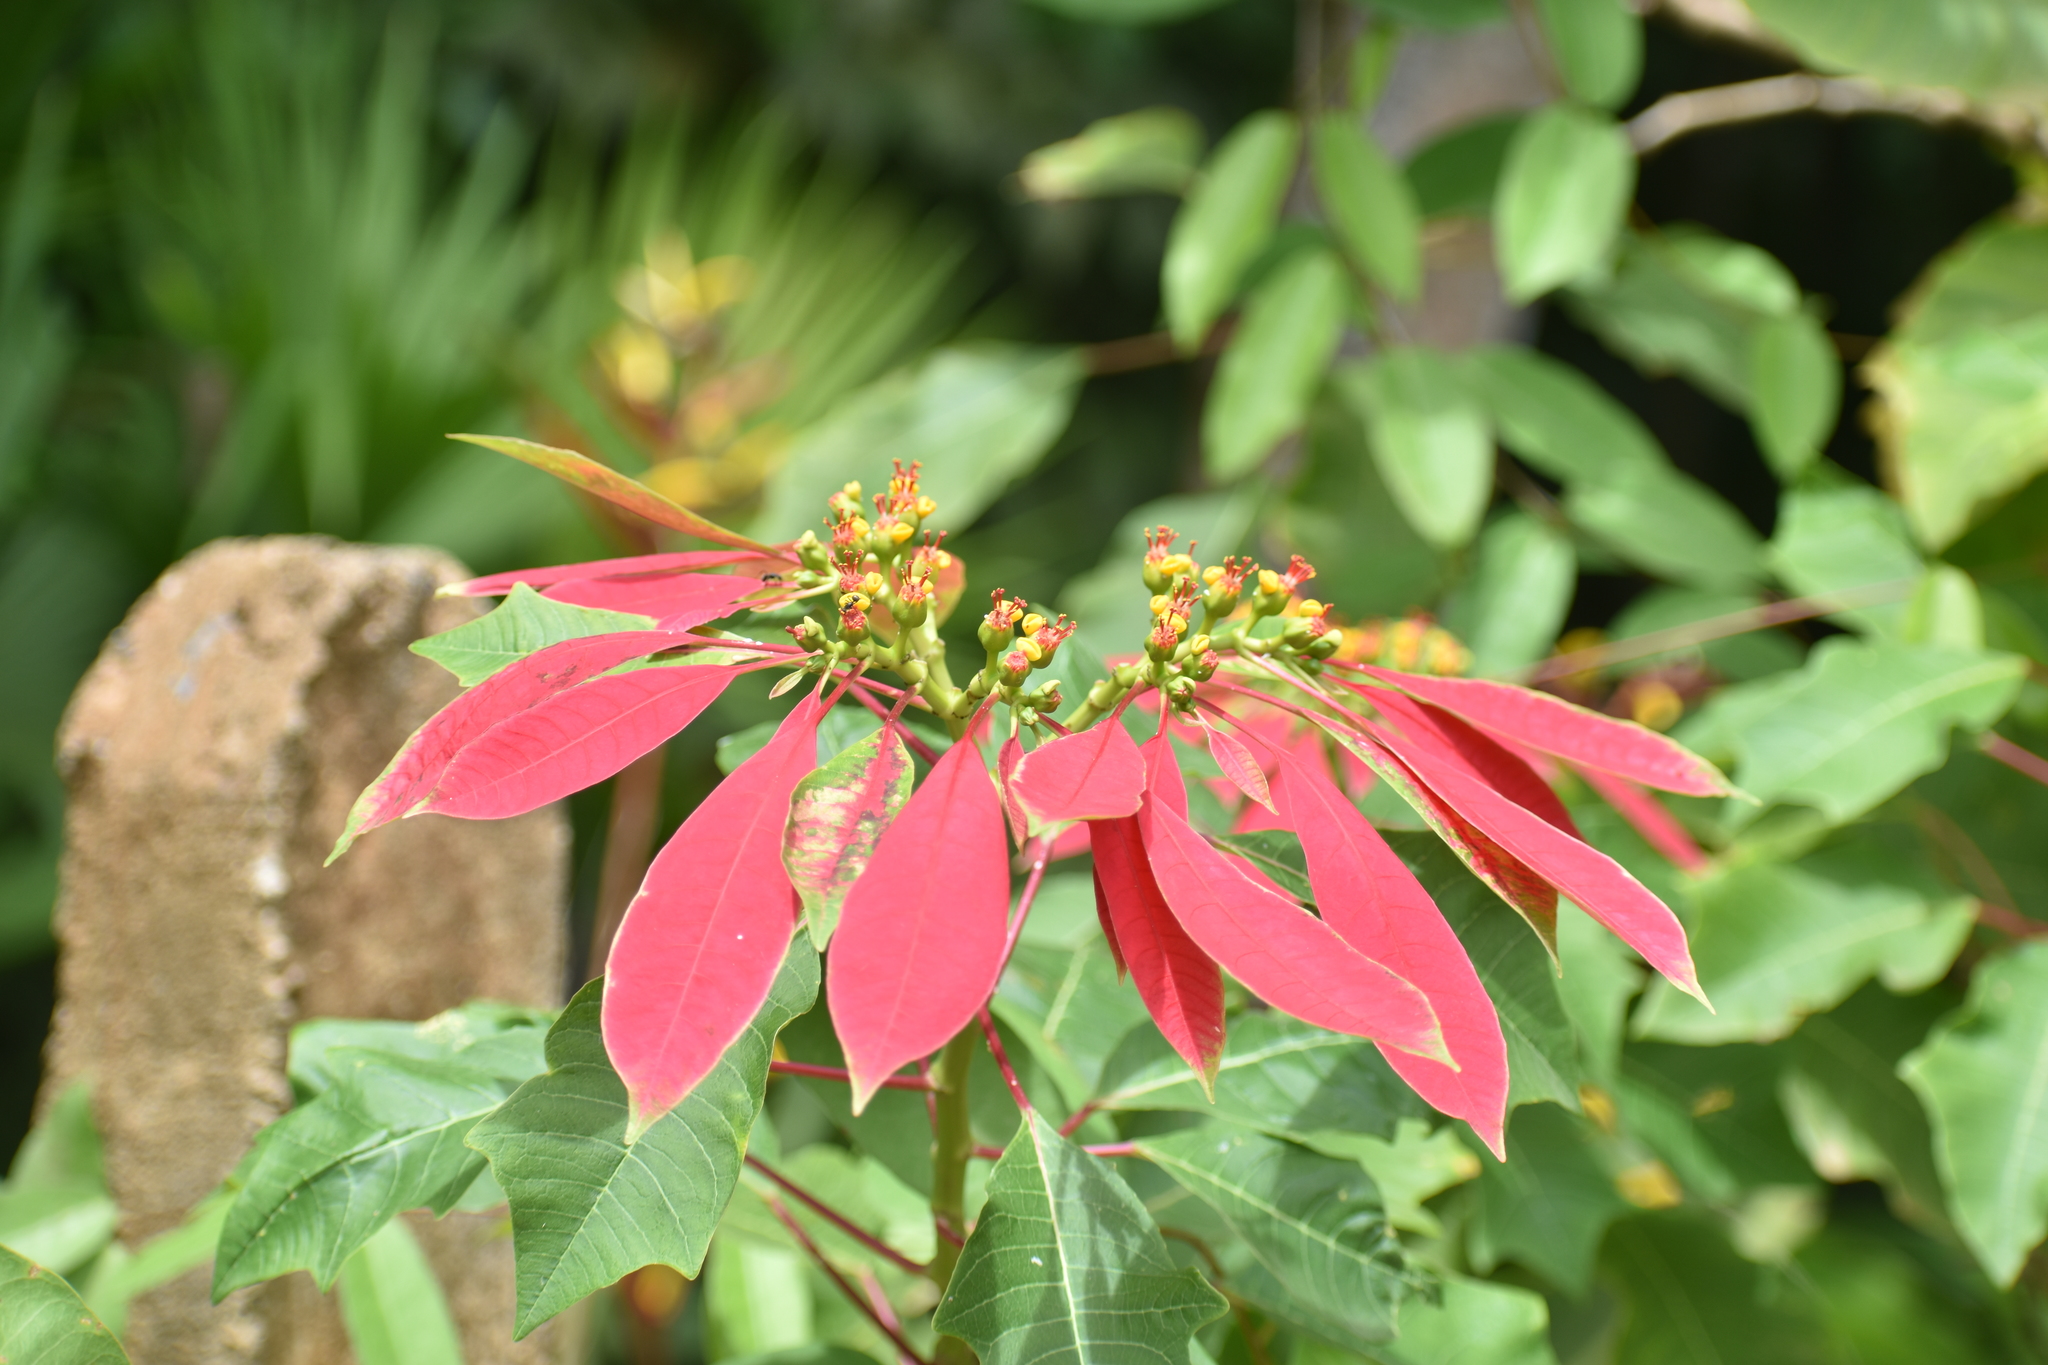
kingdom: Plantae
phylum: Tracheophyta
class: Magnoliopsida
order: Malpighiales
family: Euphorbiaceae
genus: Euphorbia
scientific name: Euphorbia pulcherrima
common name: Christmas-flower
